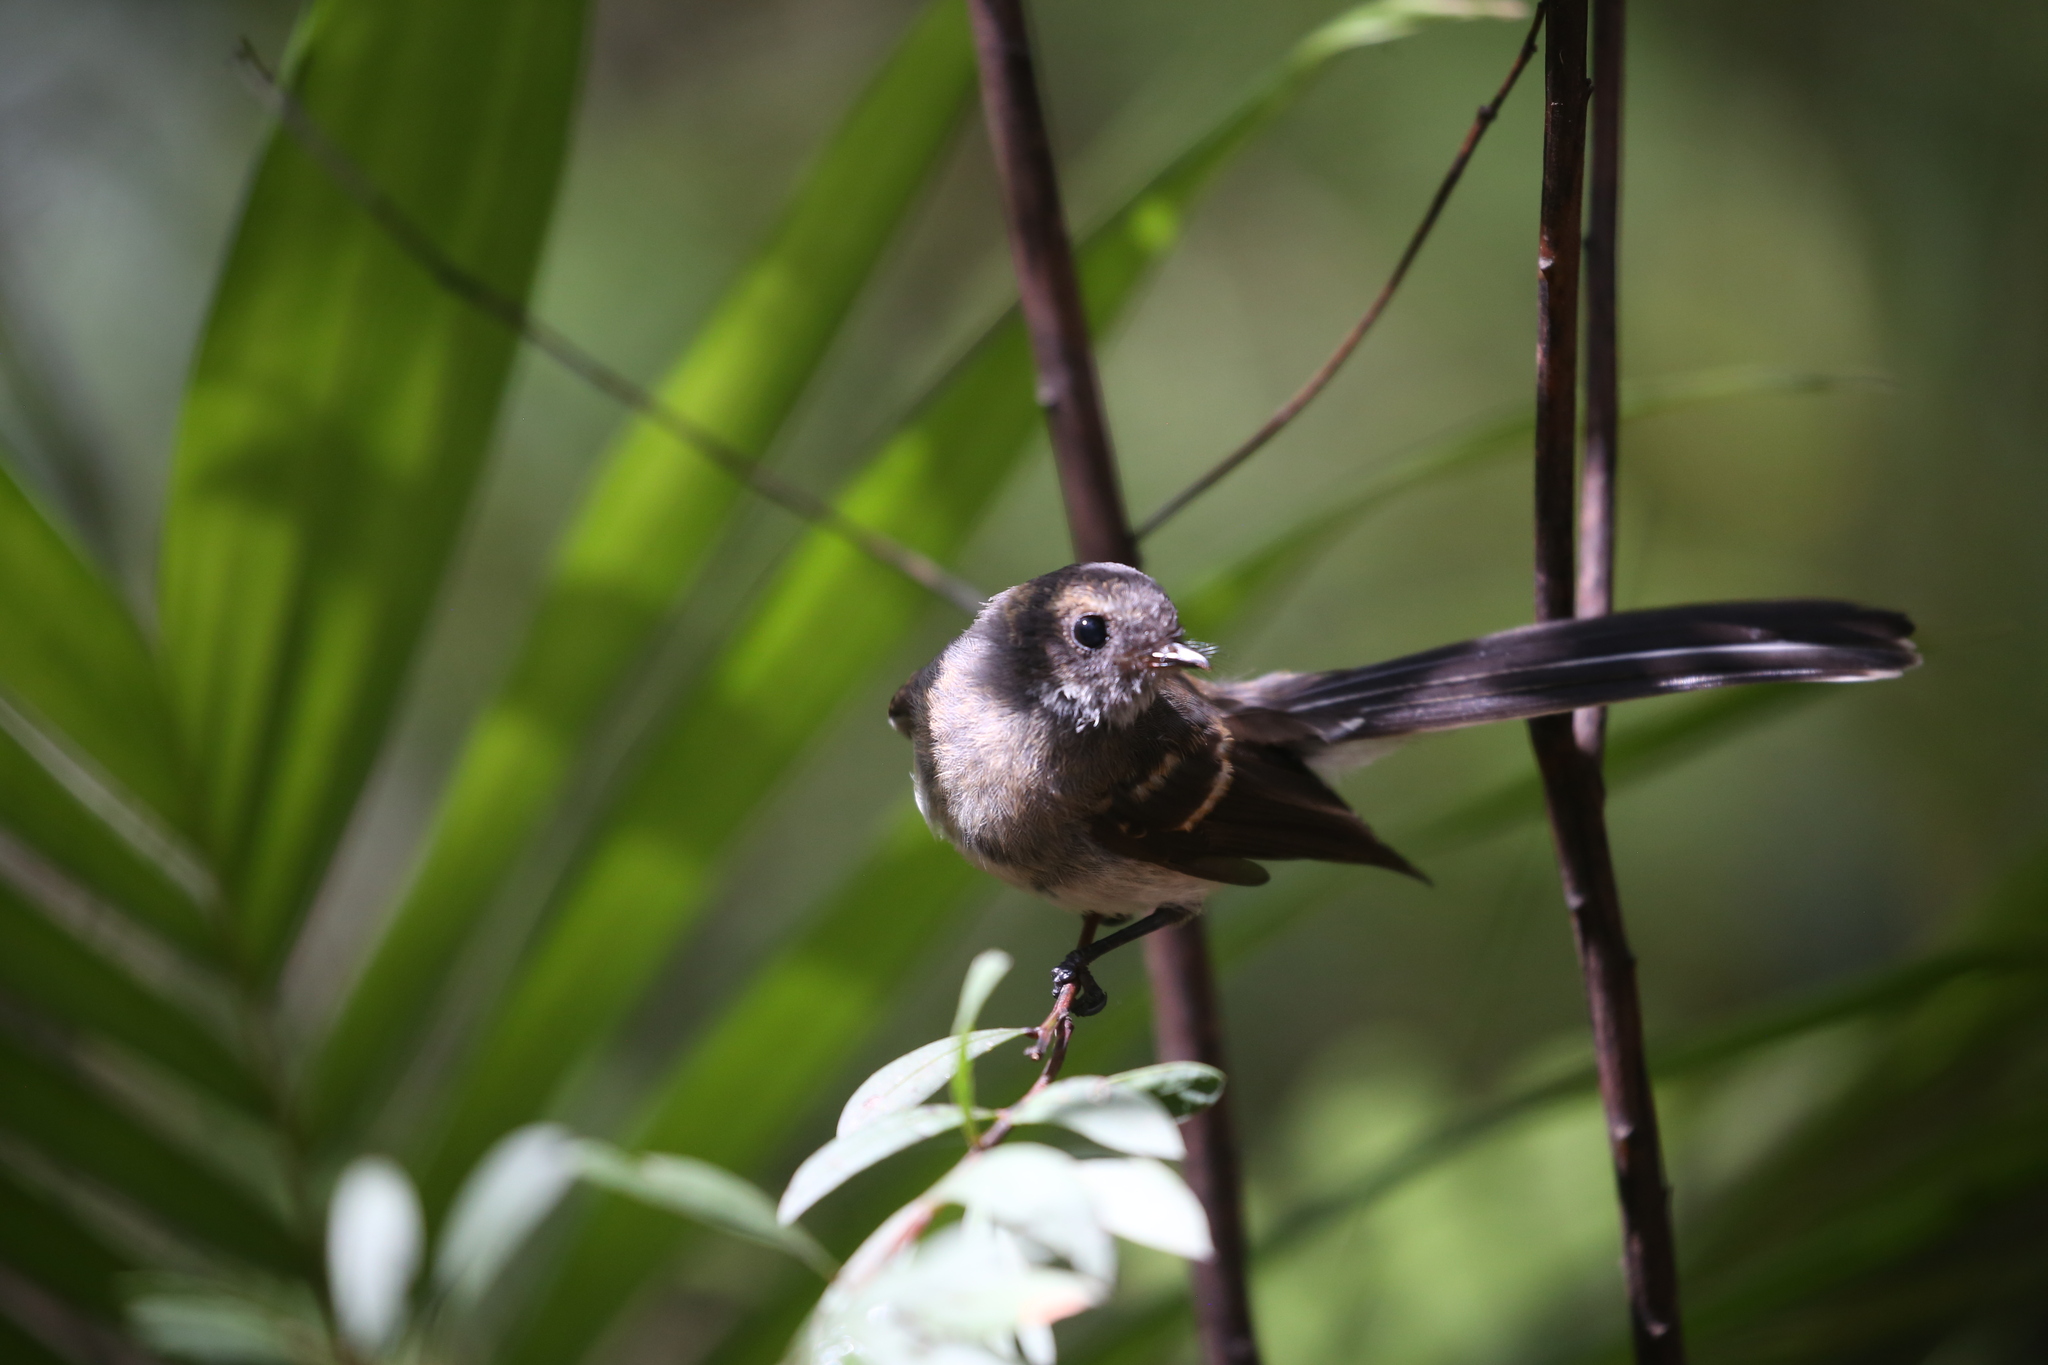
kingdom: Animalia
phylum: Chordata
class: Aves
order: Passeriformes
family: Rhipiduridae
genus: Rhipidura
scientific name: Rhipidura albiscapa
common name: Grey fantail
